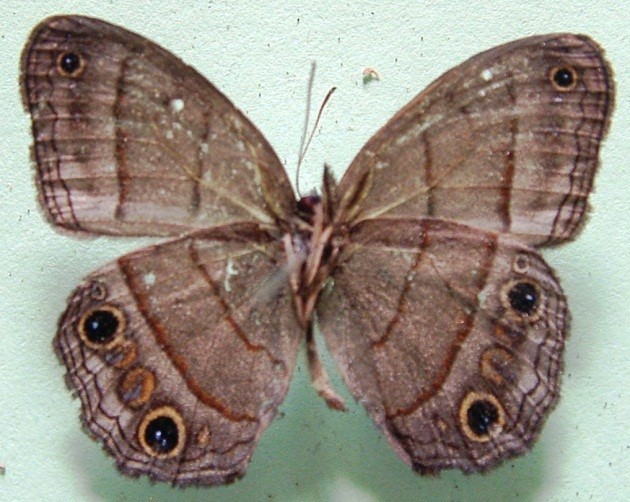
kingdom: Animalia
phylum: Arthropoda
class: Insecta
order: Lepidoptera
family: Nymphalidae
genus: Euptychia
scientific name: Euptychia Cissia pompilia
